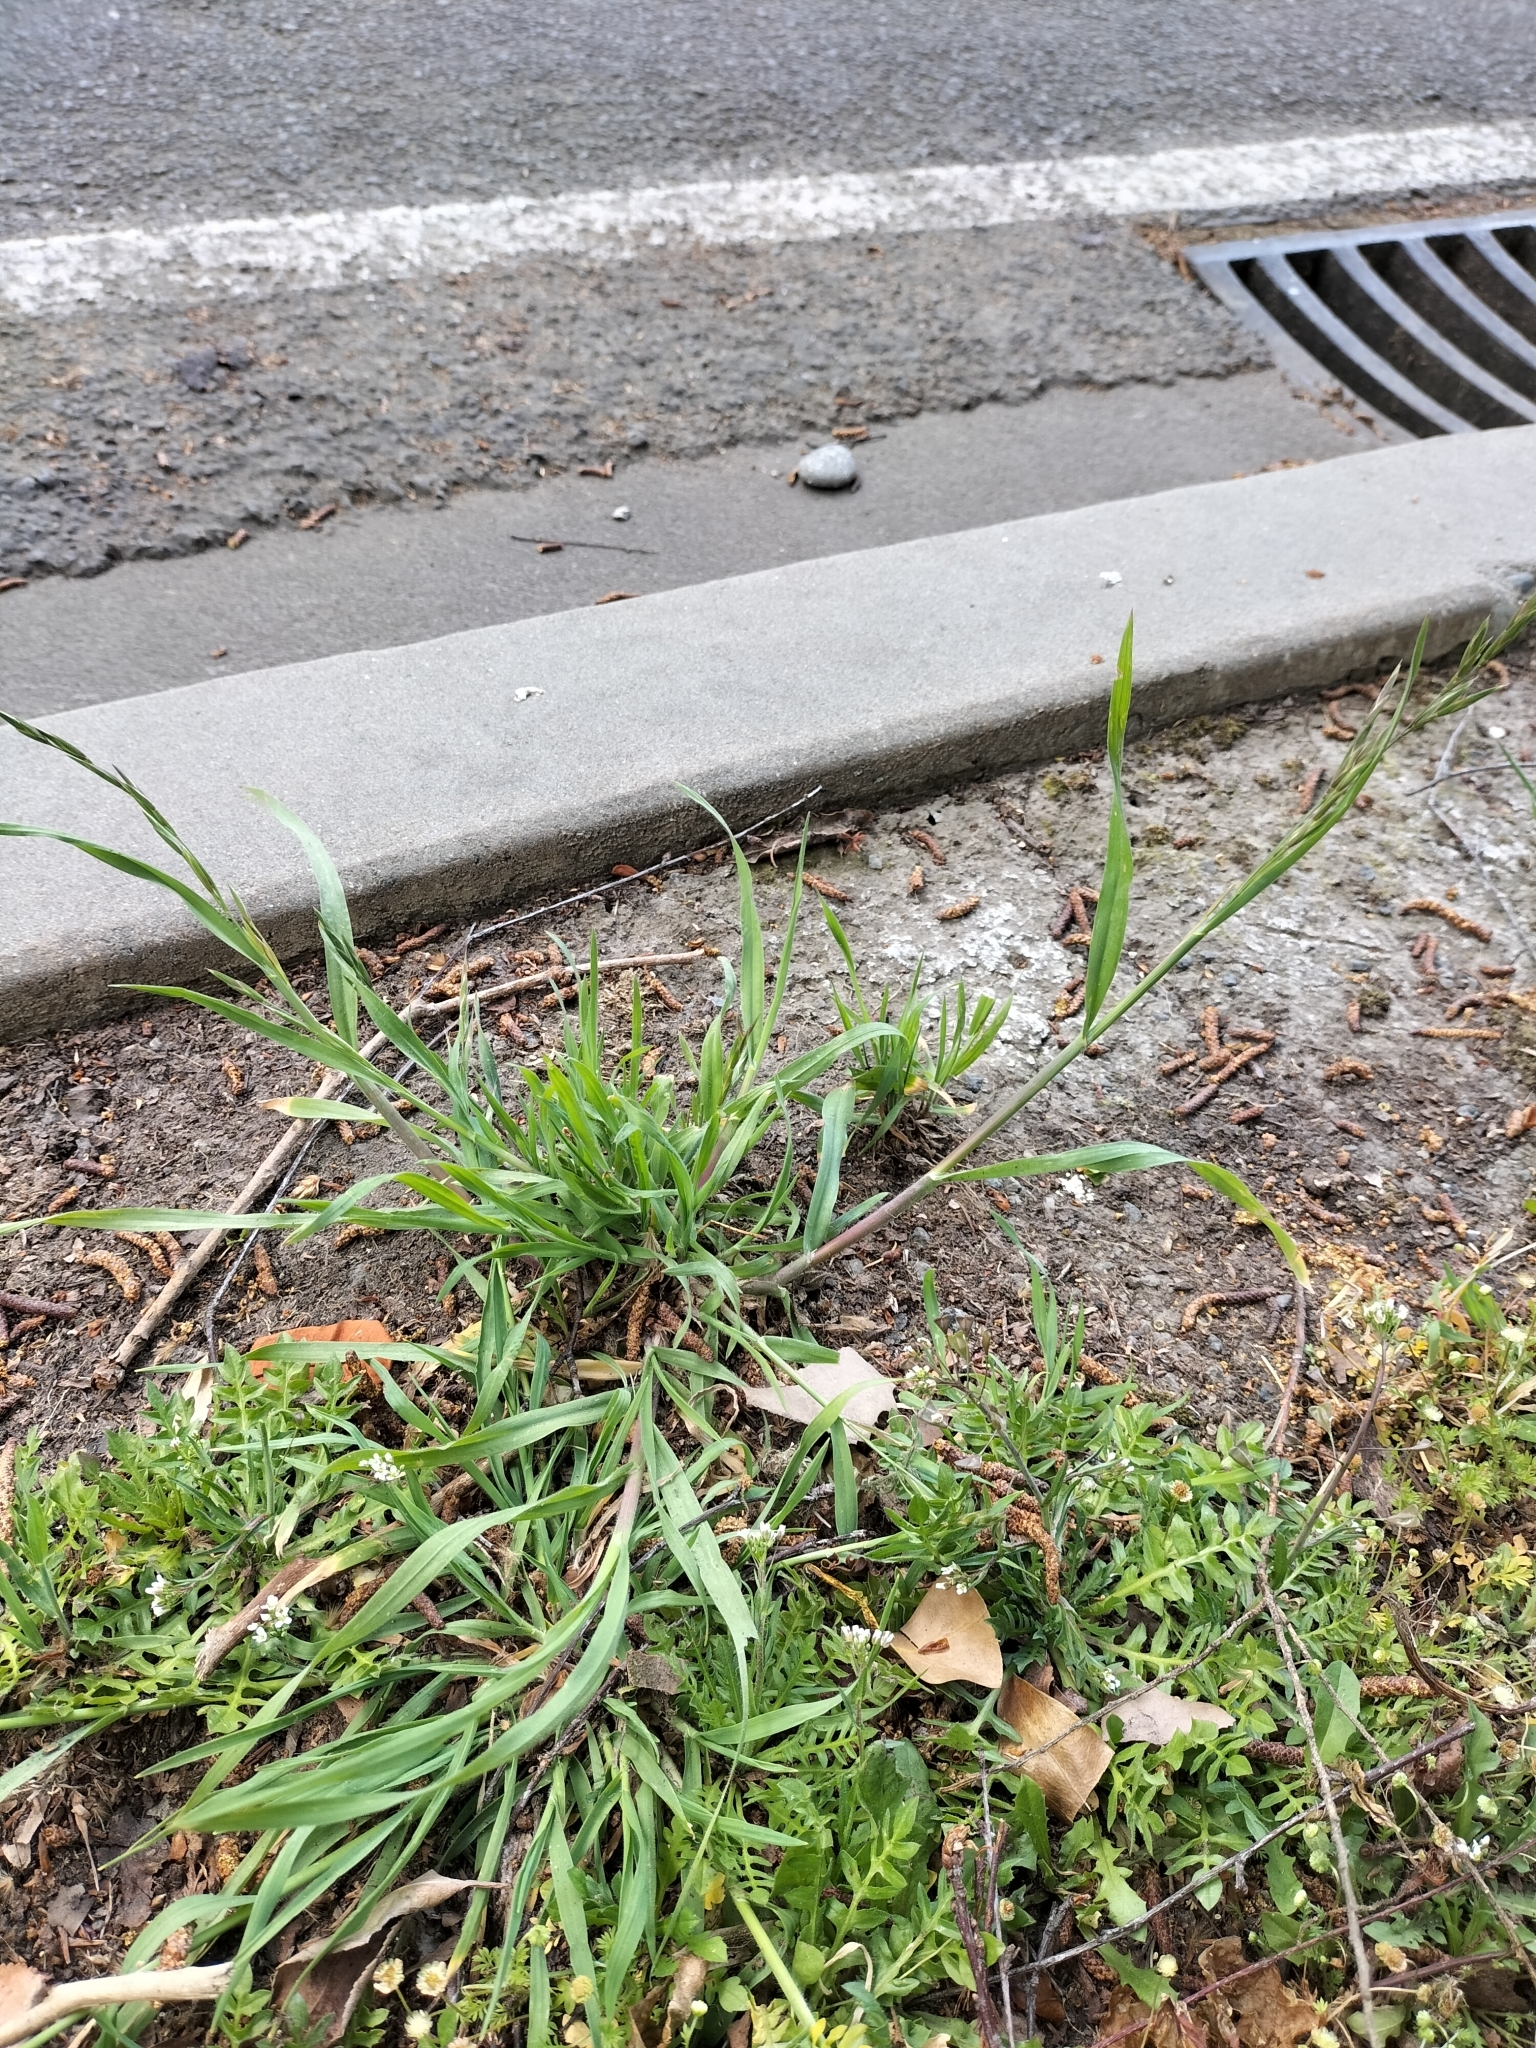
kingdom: Plantae
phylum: Tracheophyta
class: Liliopsida
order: Poales
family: Poaceae
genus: Bromus
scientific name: Bromus catharticus
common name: Rescuegrass
